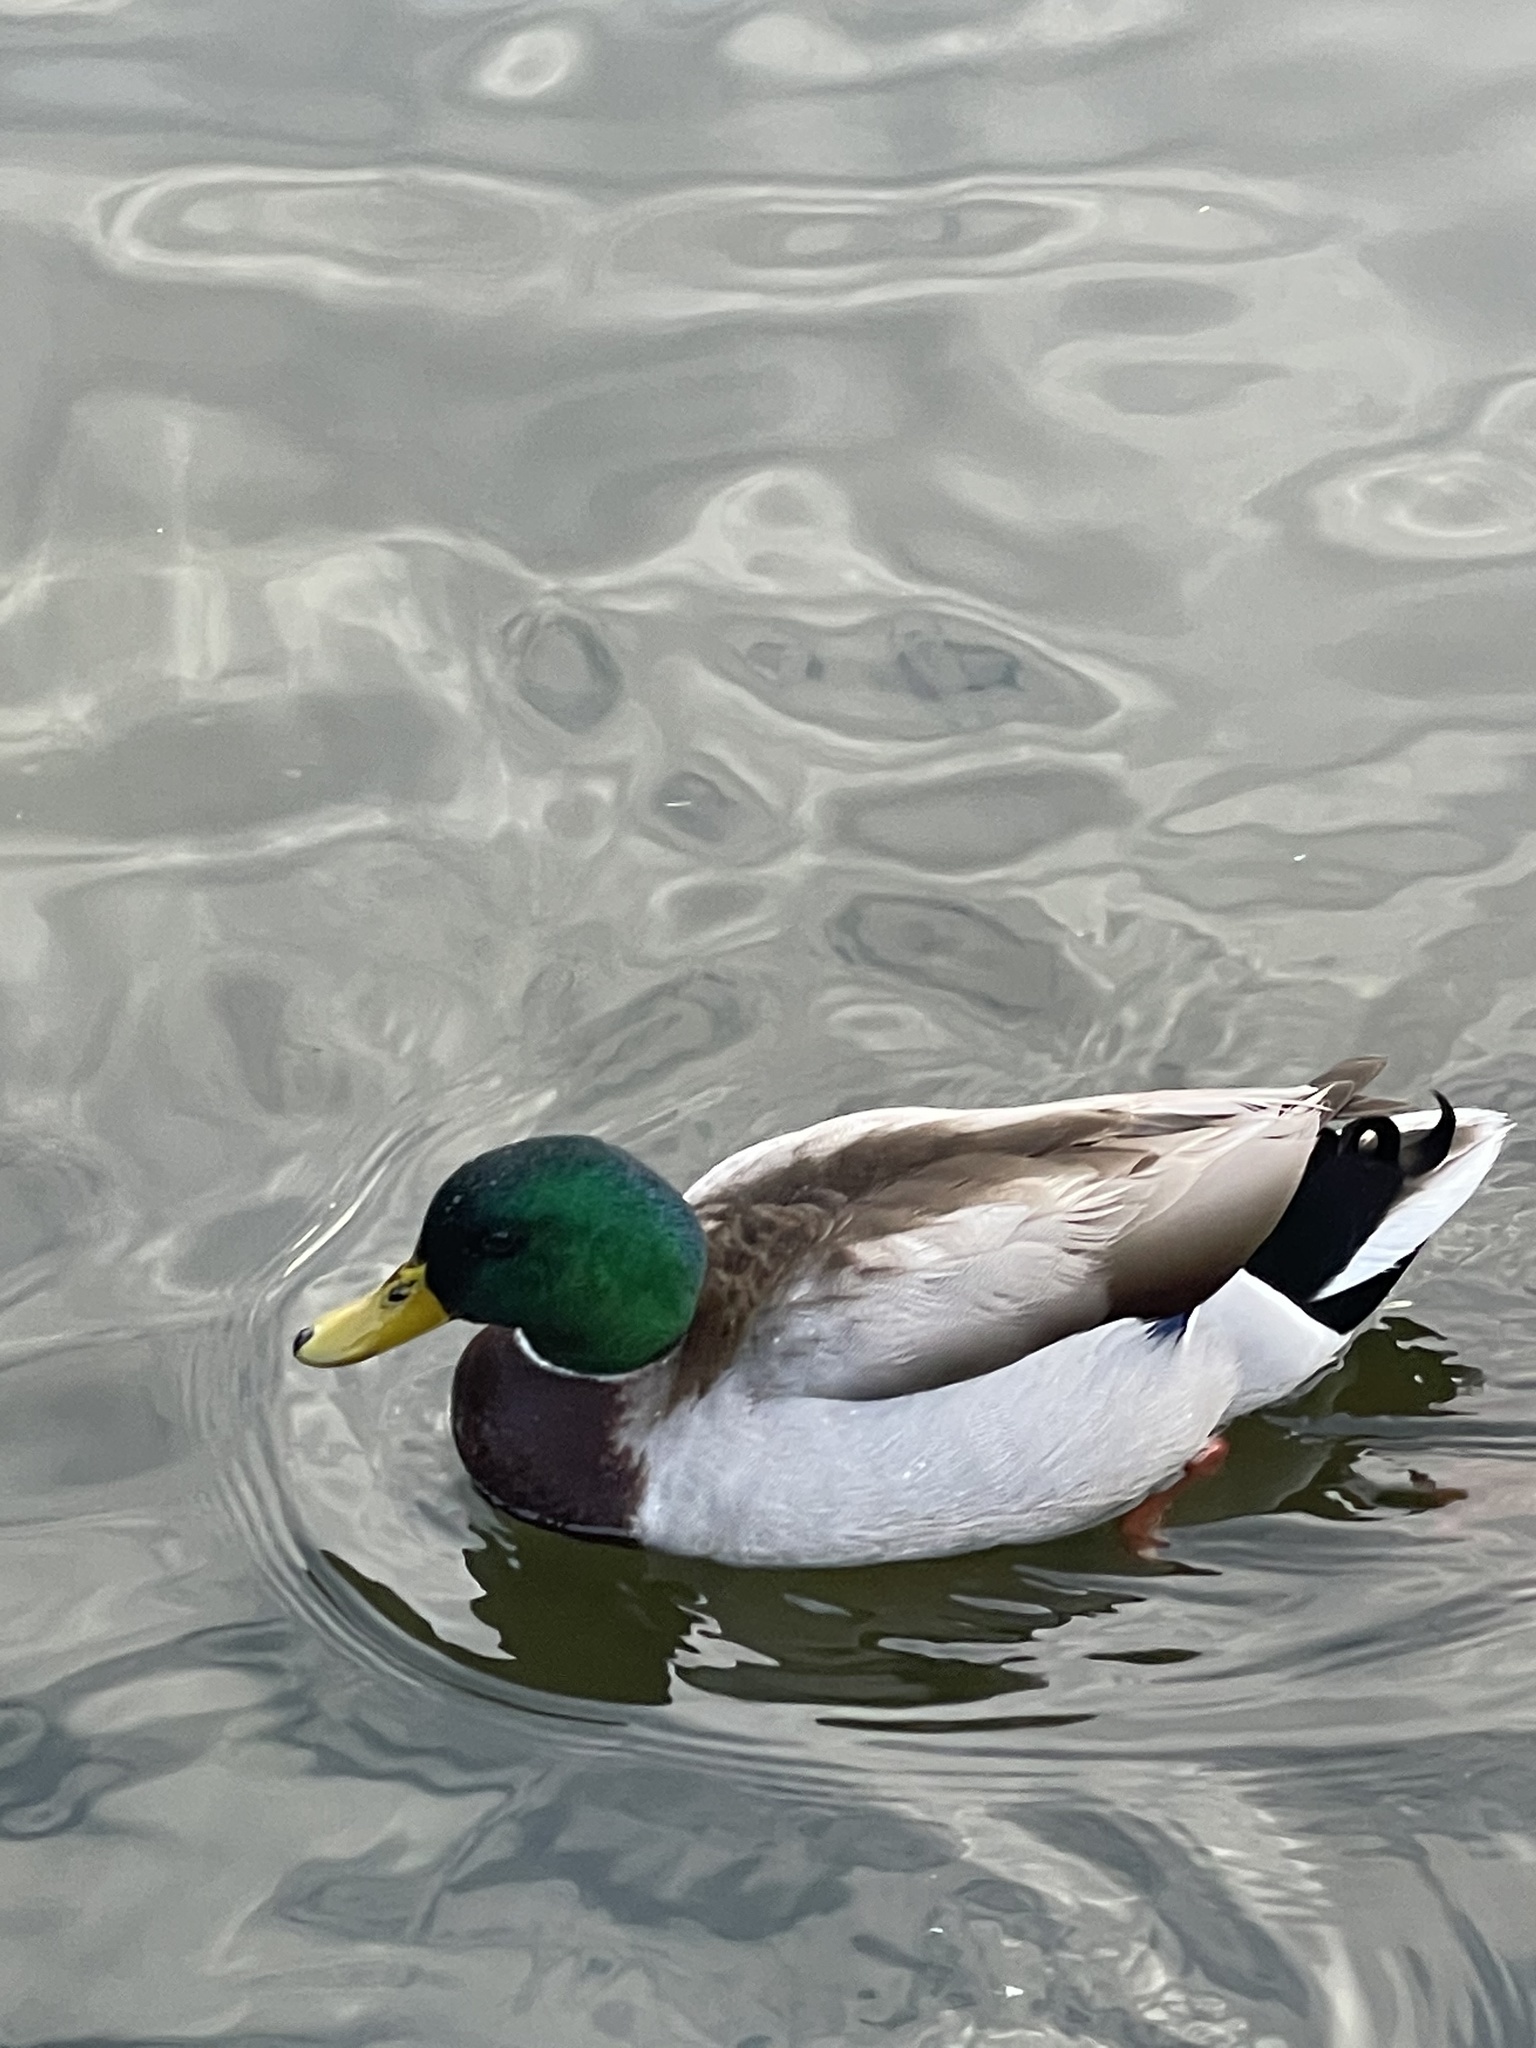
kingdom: Animalia
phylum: Chordata
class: Aves
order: Anseriformes
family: Anatidae
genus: Anas
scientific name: Anas platyrhynchos
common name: Mallard
